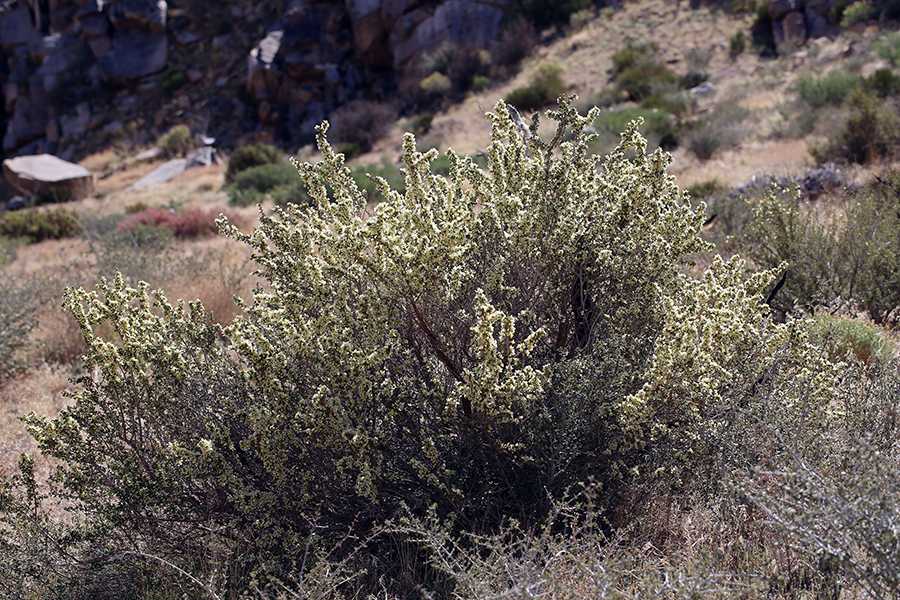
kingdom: Plantae
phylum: Tracheophyta
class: Magnoliopsida
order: Rosales
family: Rosaceae
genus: Purshia
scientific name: Purshia glandulosa
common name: Desert bitterbrush
